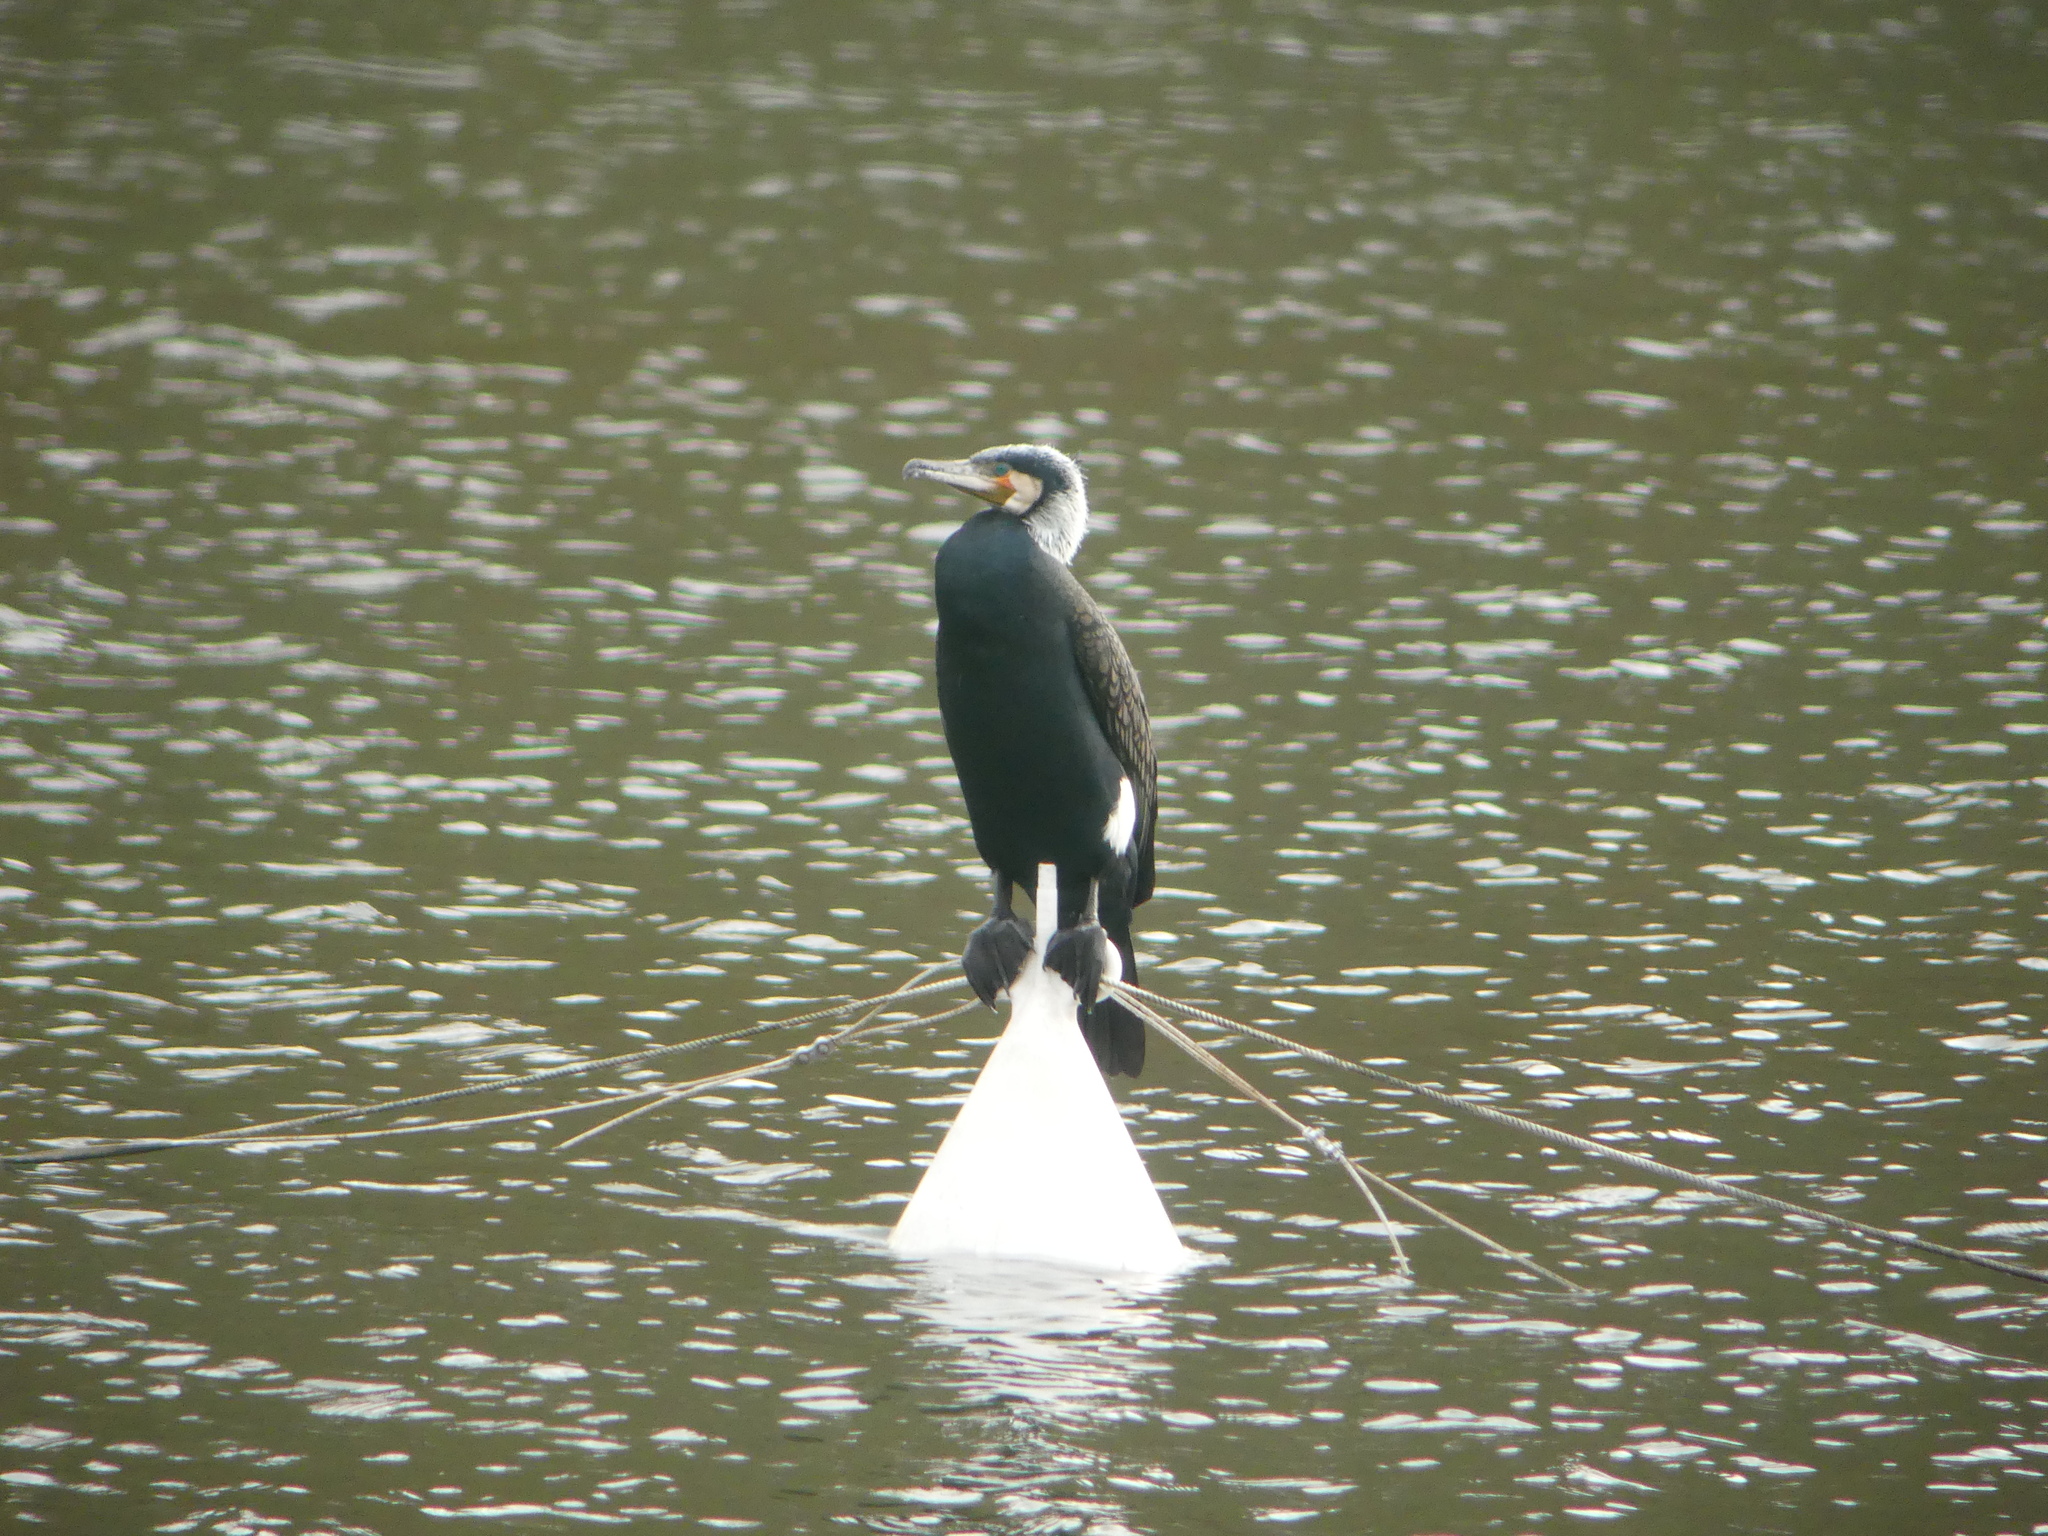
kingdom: Animalia
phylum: Chordata
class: Aves
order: Suliformes
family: Phalacrocoracidae
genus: Phalacrocorax
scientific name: Phalacrocorax carbo
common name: Great cormorant
